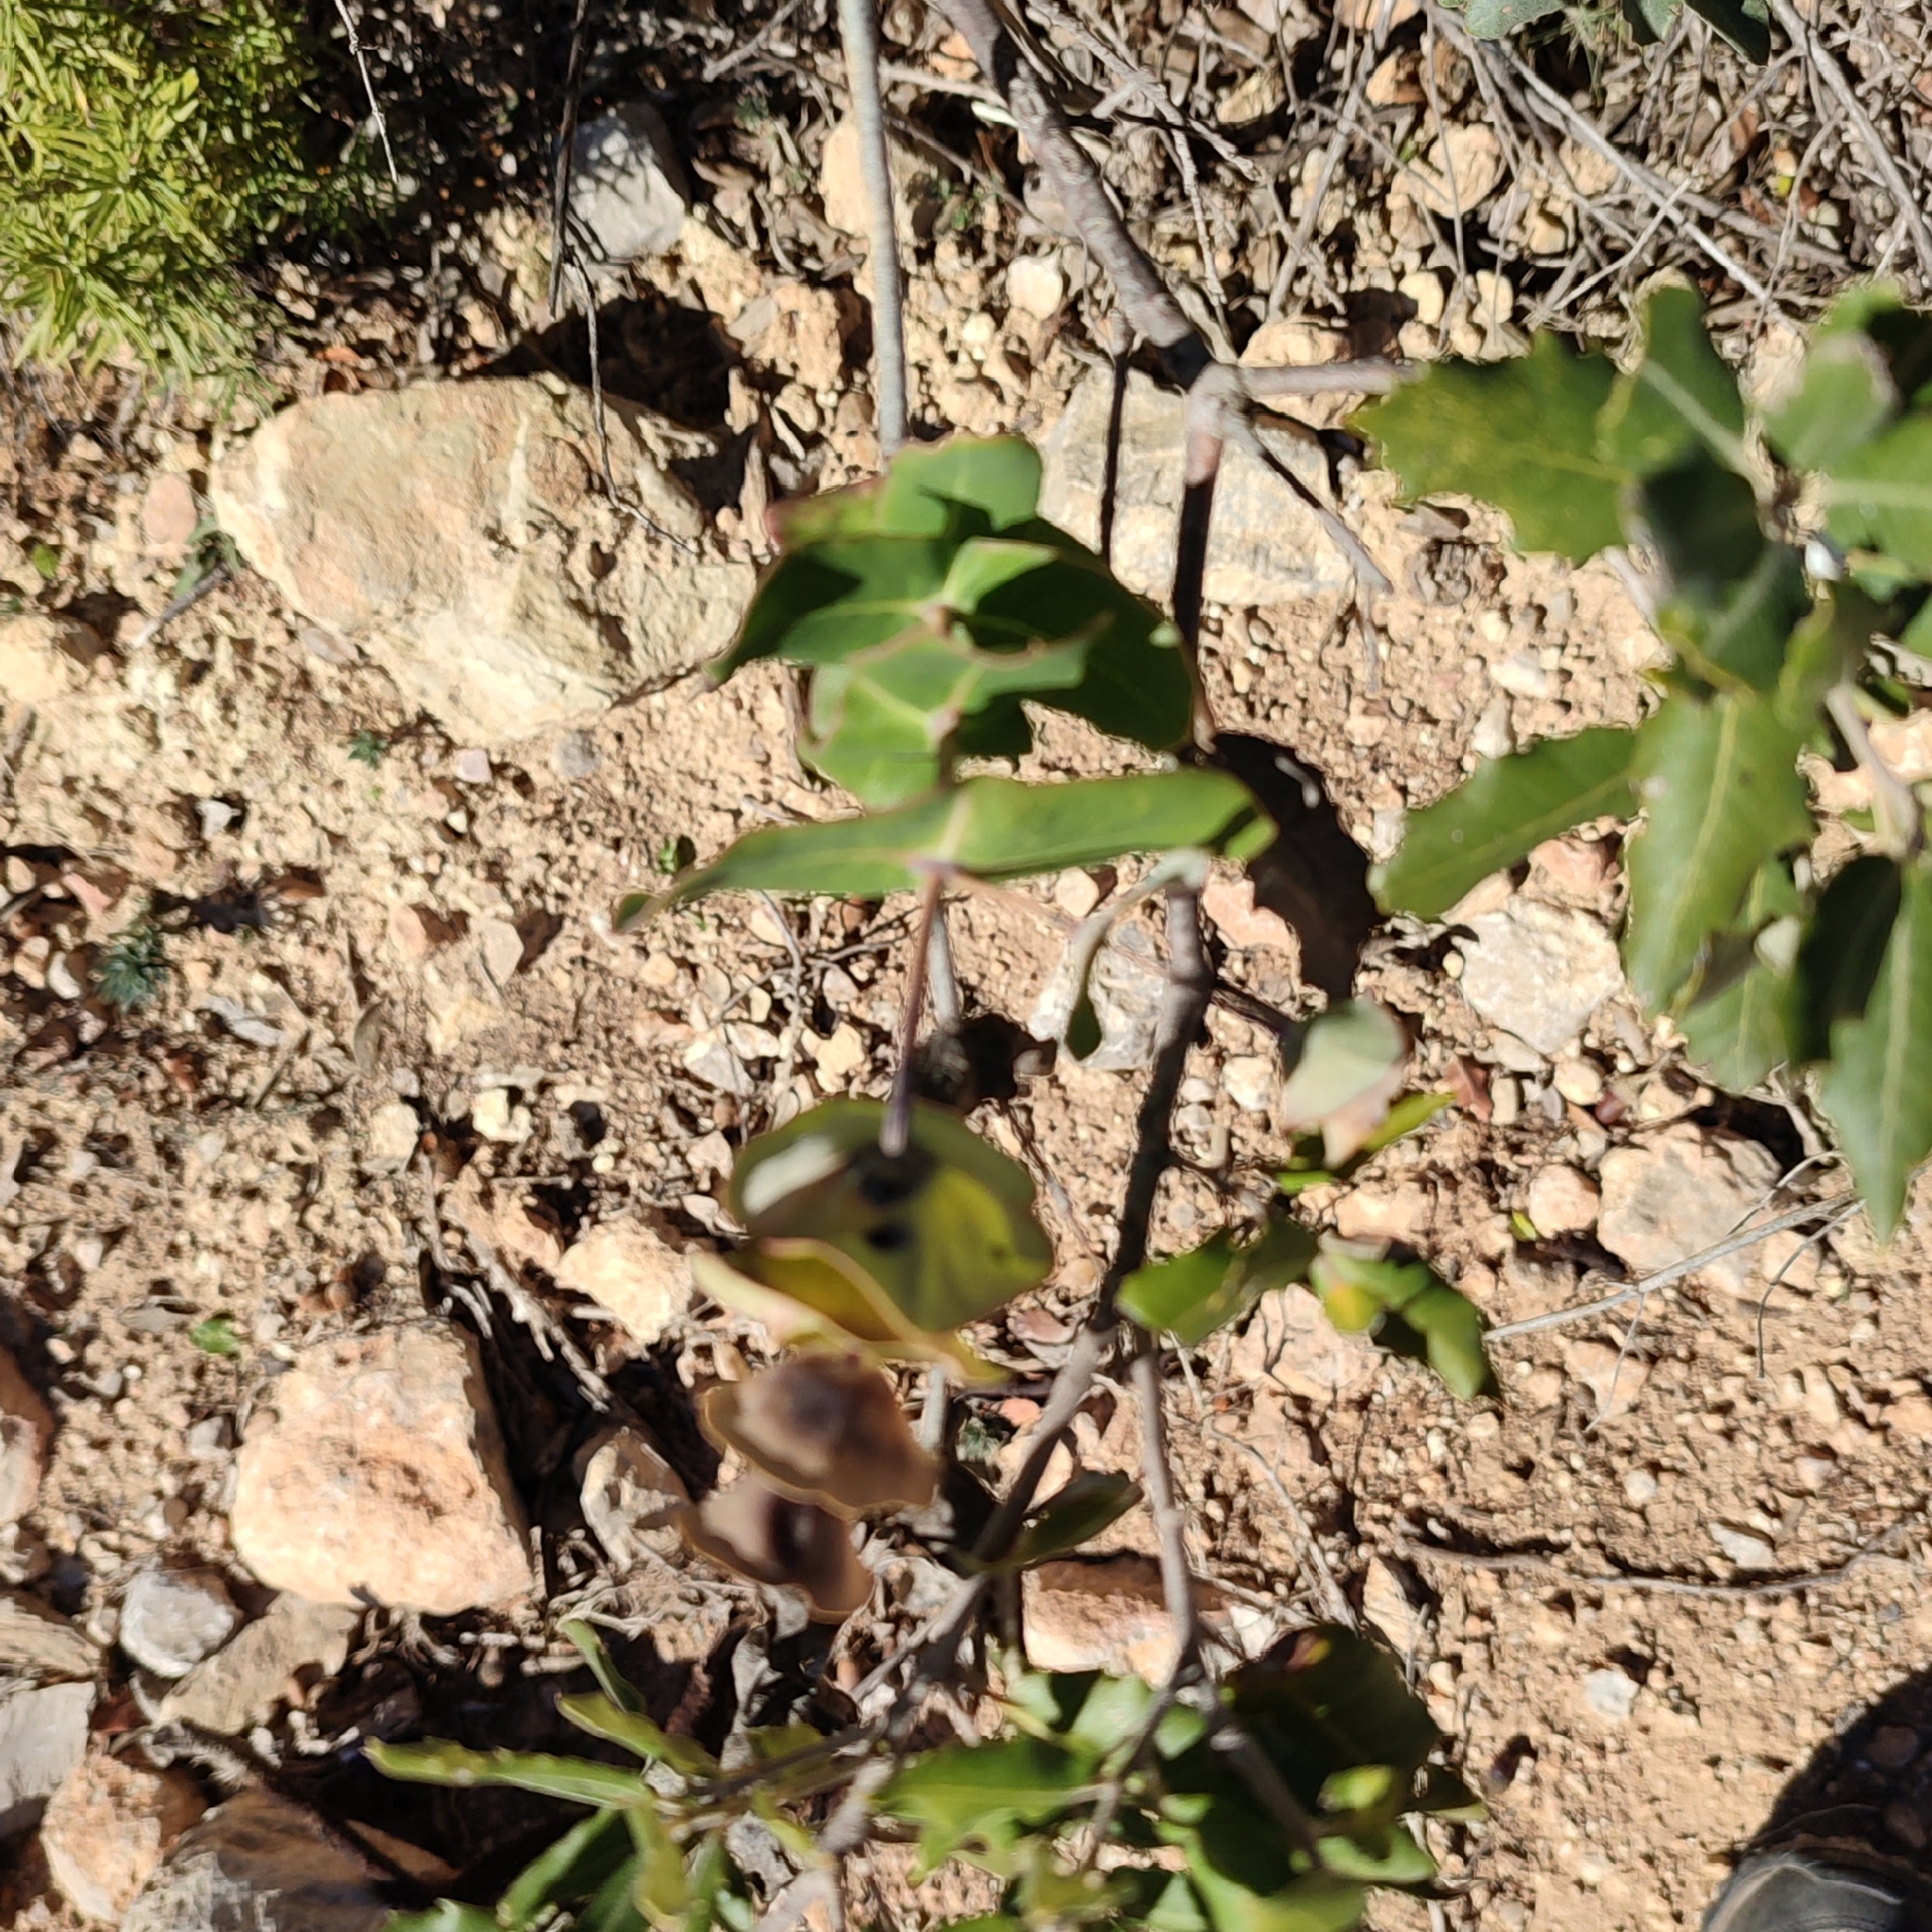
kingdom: Plantae
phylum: Tracheophyta
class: Magnoliopsida
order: Dipsacales
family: Caprifoliaceae
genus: Lonicera
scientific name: Lonicera implexa
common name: Minorca honeysuckle
